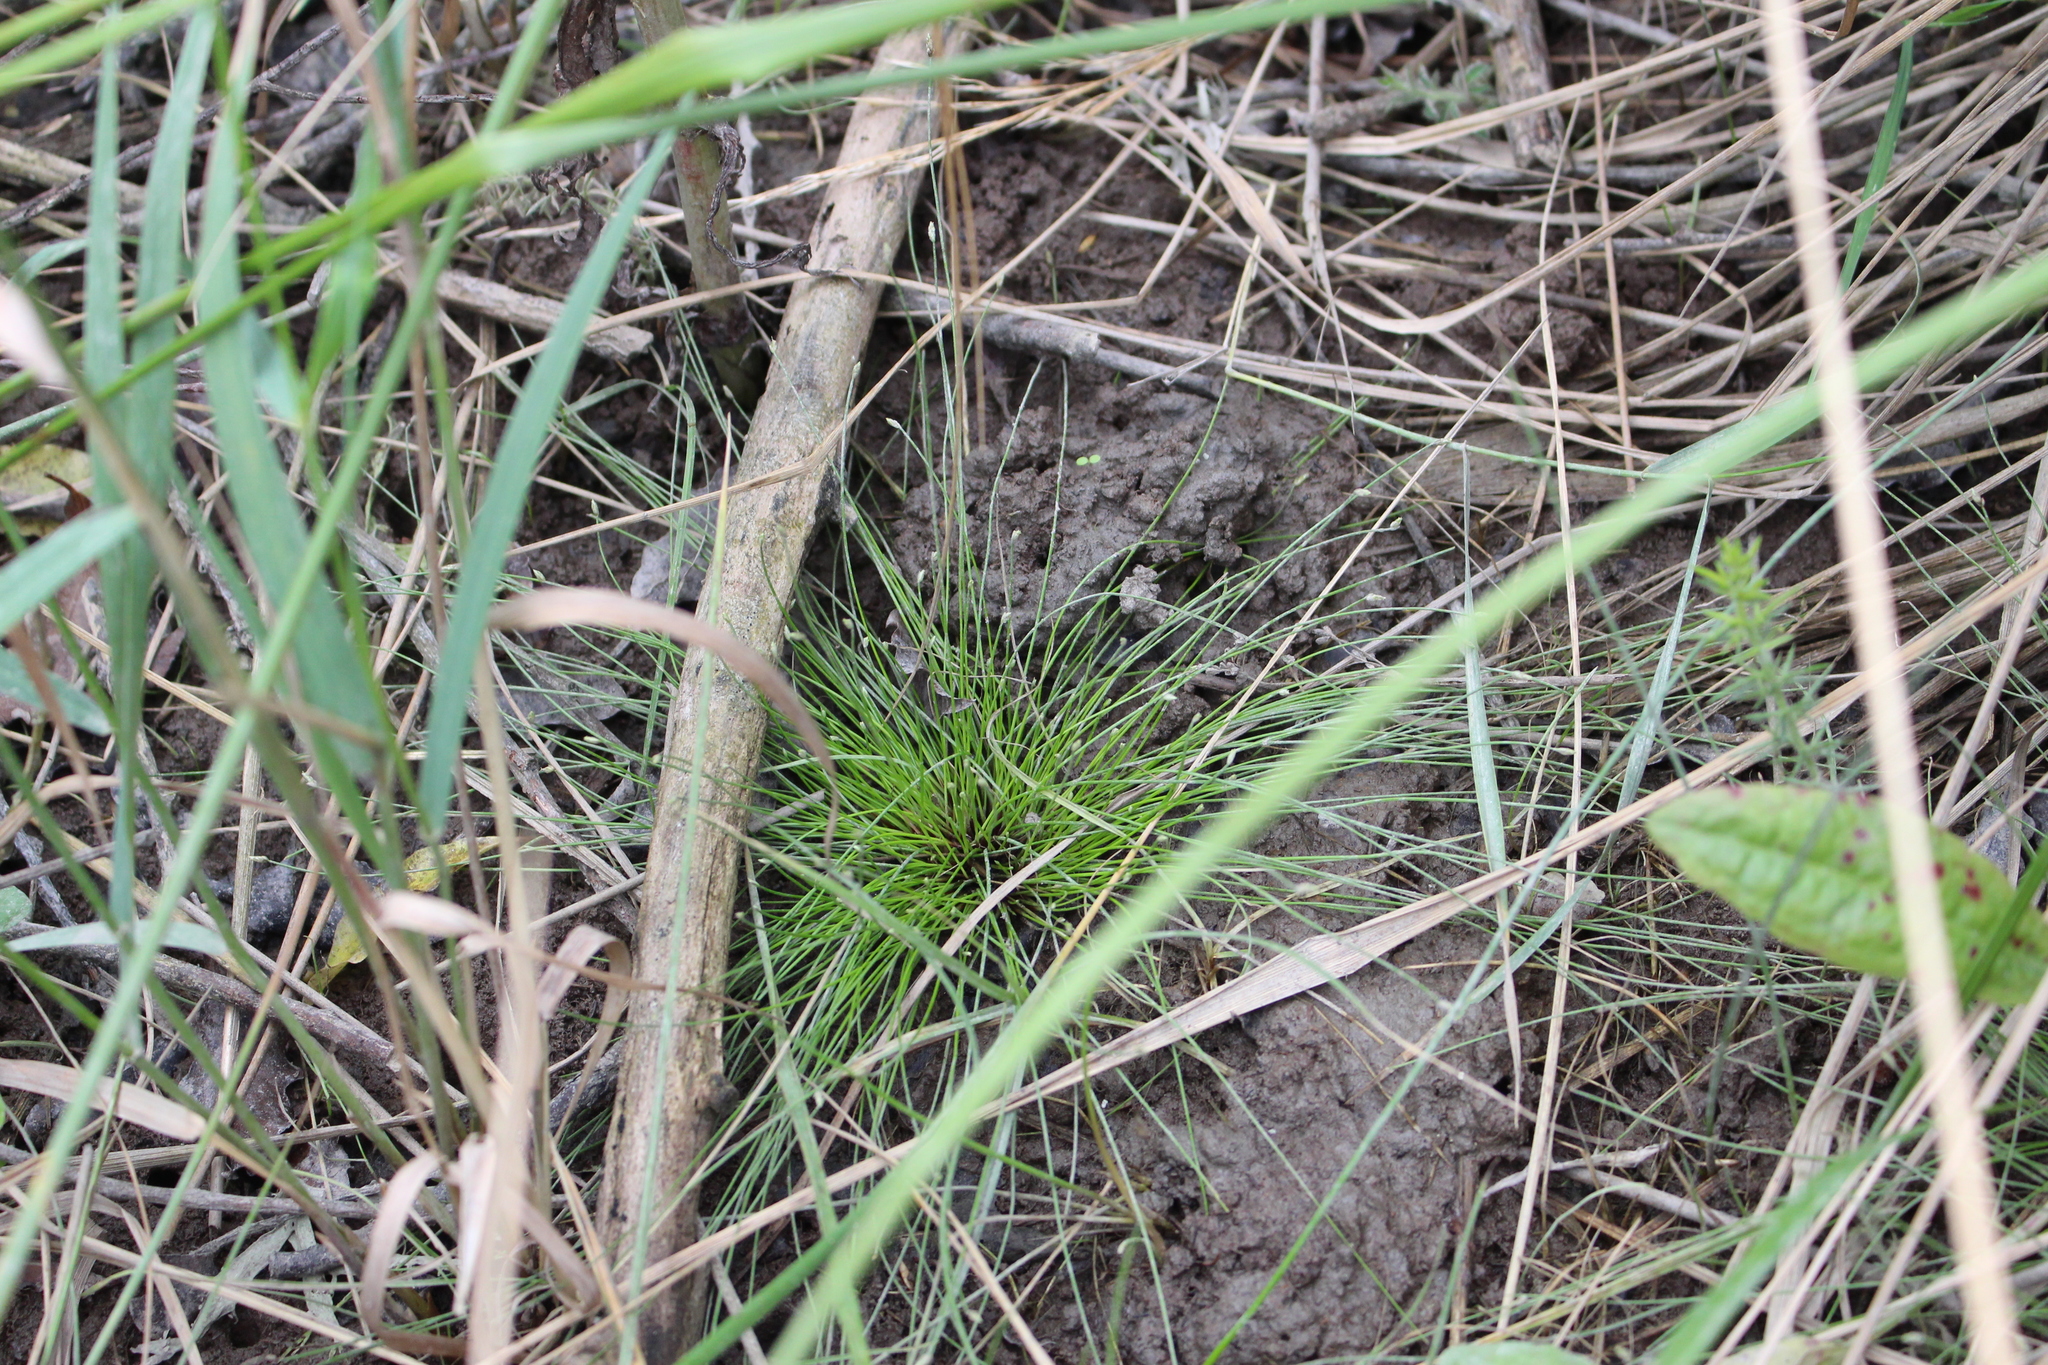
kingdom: Plantae
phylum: Tracheophyta
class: Liliopsida
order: Poales
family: Cyperaceae
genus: Eleocharis
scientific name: Eleocharis gracilis
